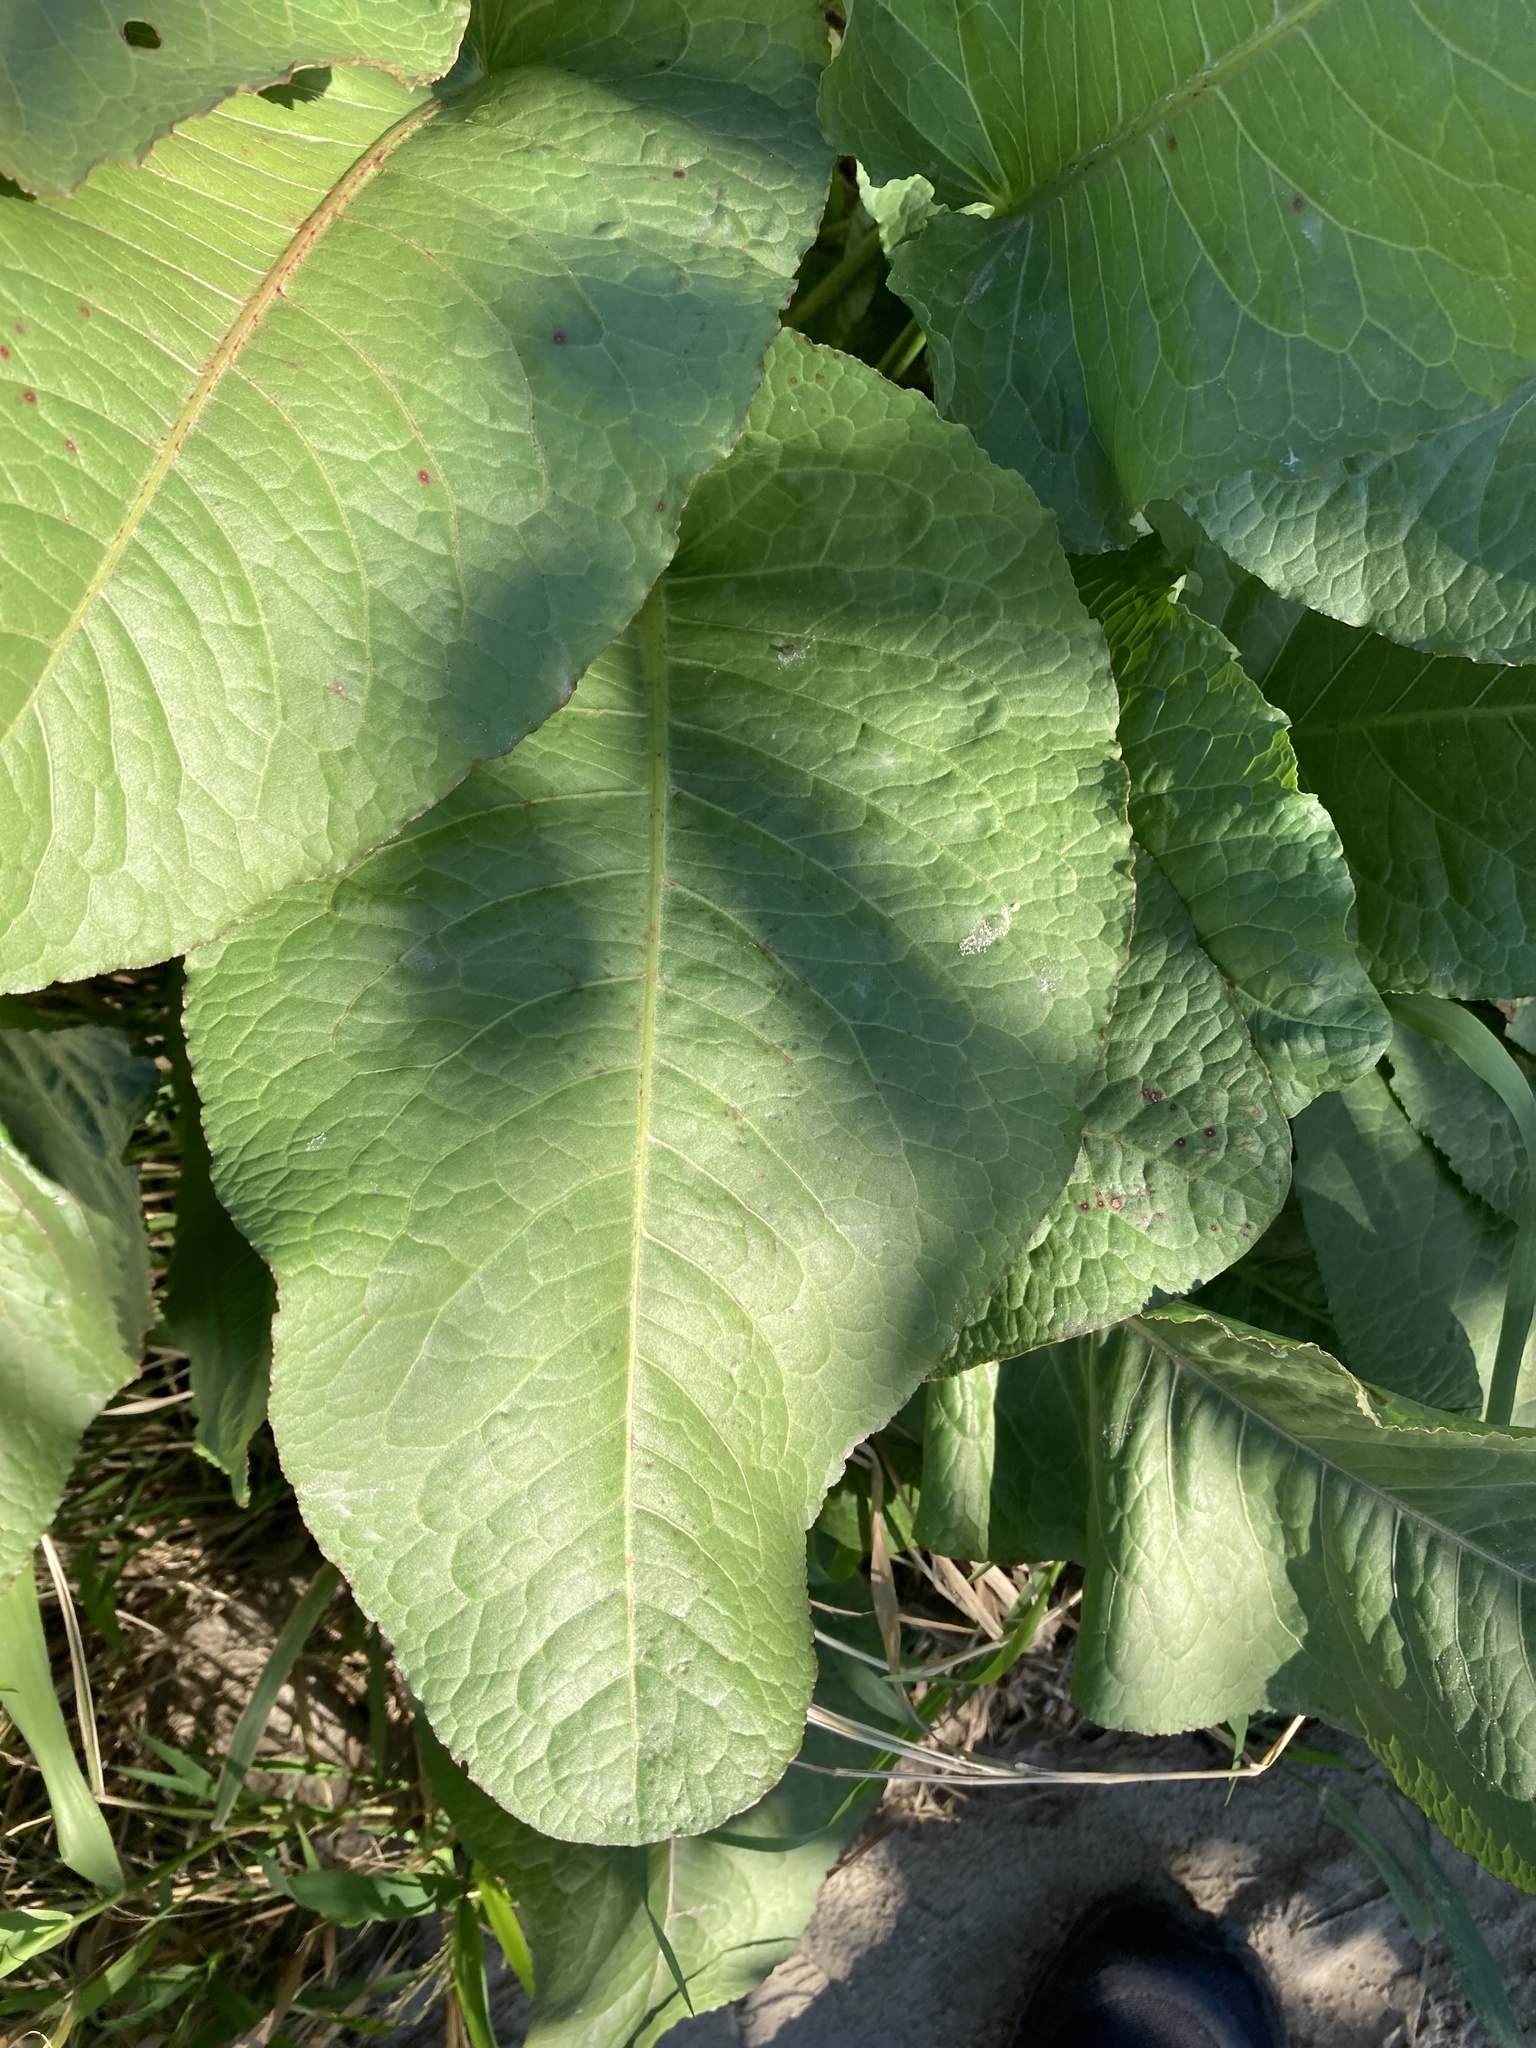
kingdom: Plantae
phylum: Tracheophyta
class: Magnoliopsida
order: Caryophyllales
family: Polygonaceae
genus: Rumex
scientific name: Rumex obtusifolius
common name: Bitter dock
